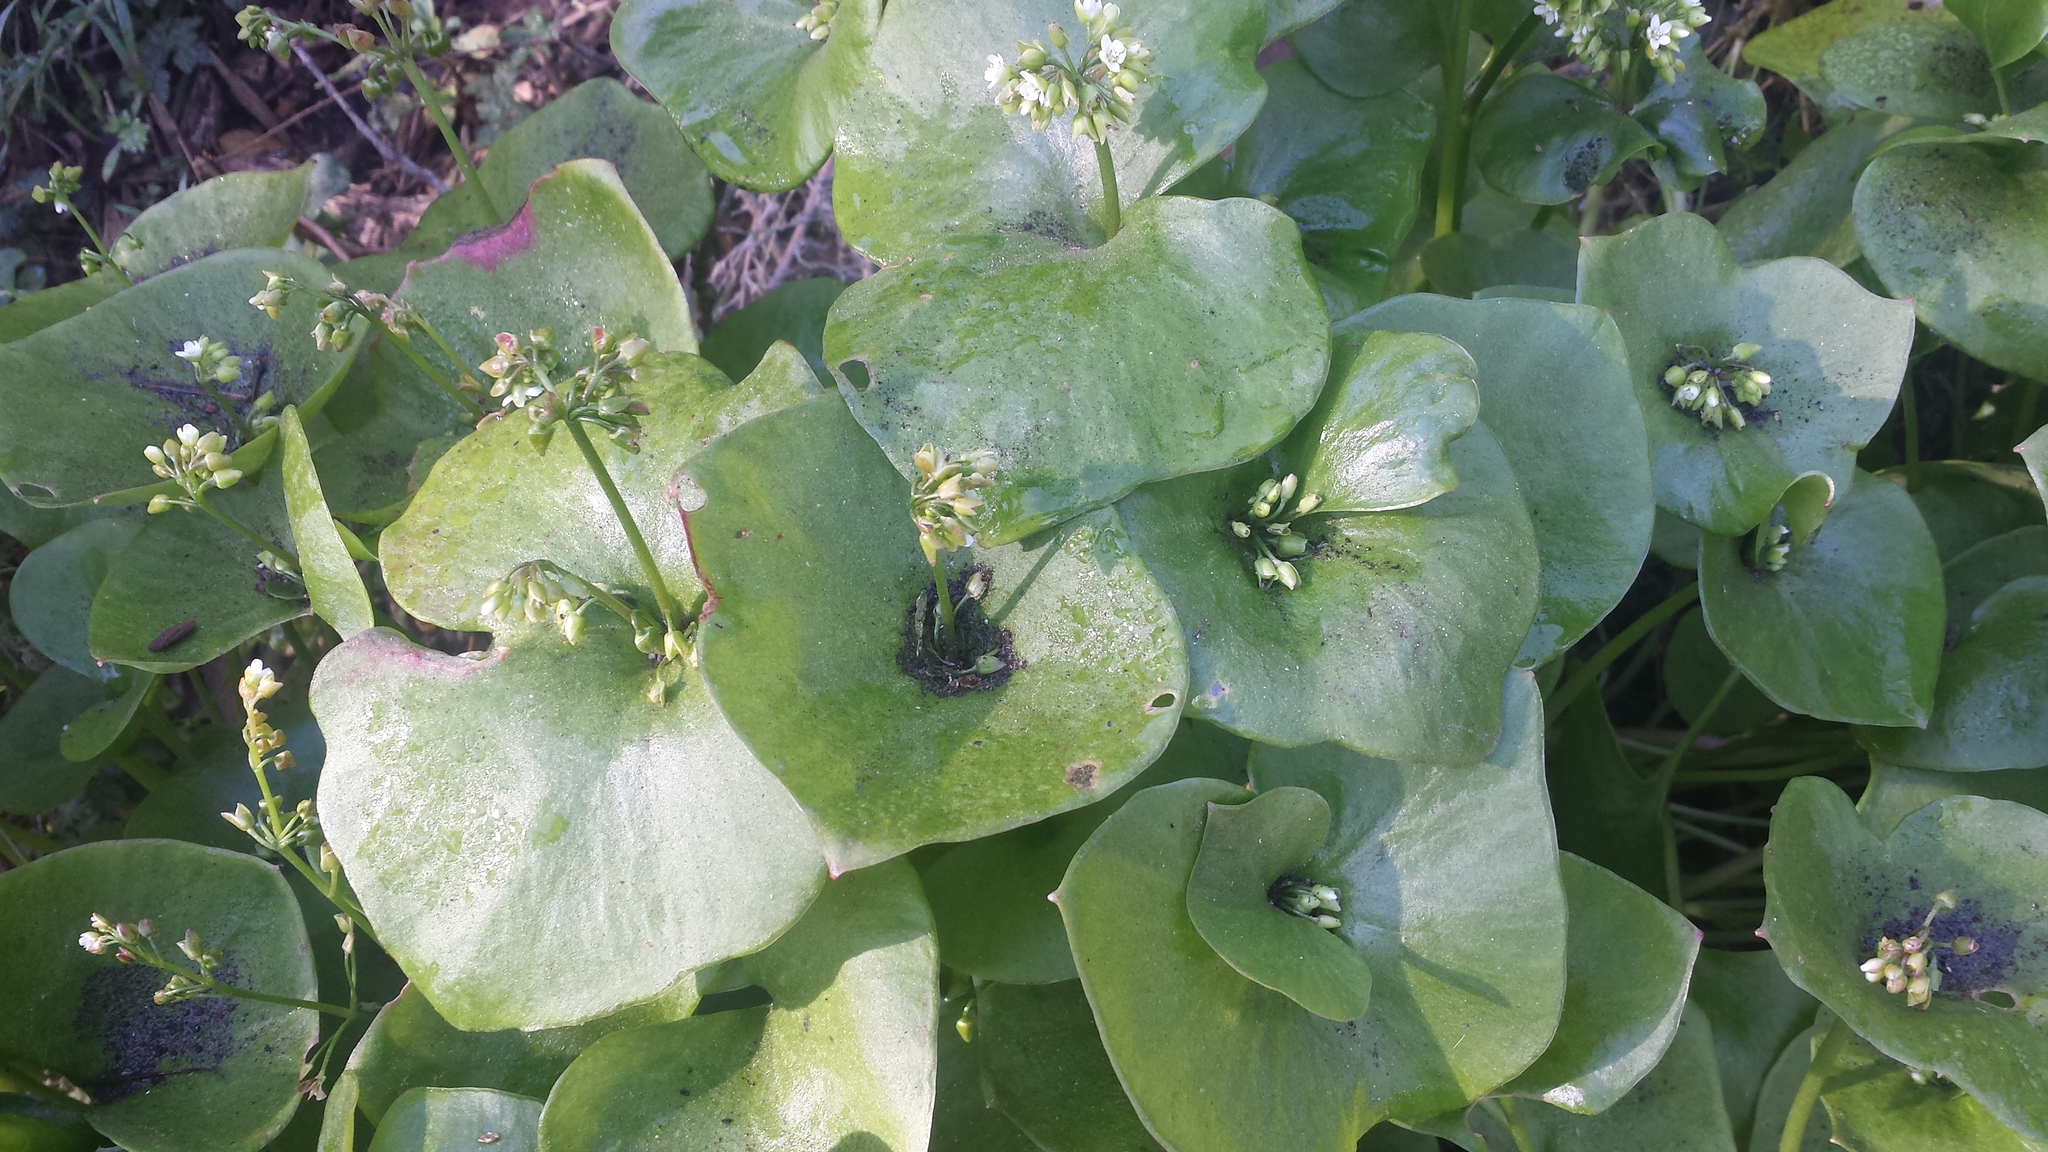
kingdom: Plantae
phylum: Tracheophyta
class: Magnoliopsida
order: Caryophyllales
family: Montiaceae
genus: Claytonia
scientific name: Claytonia perfoliata
